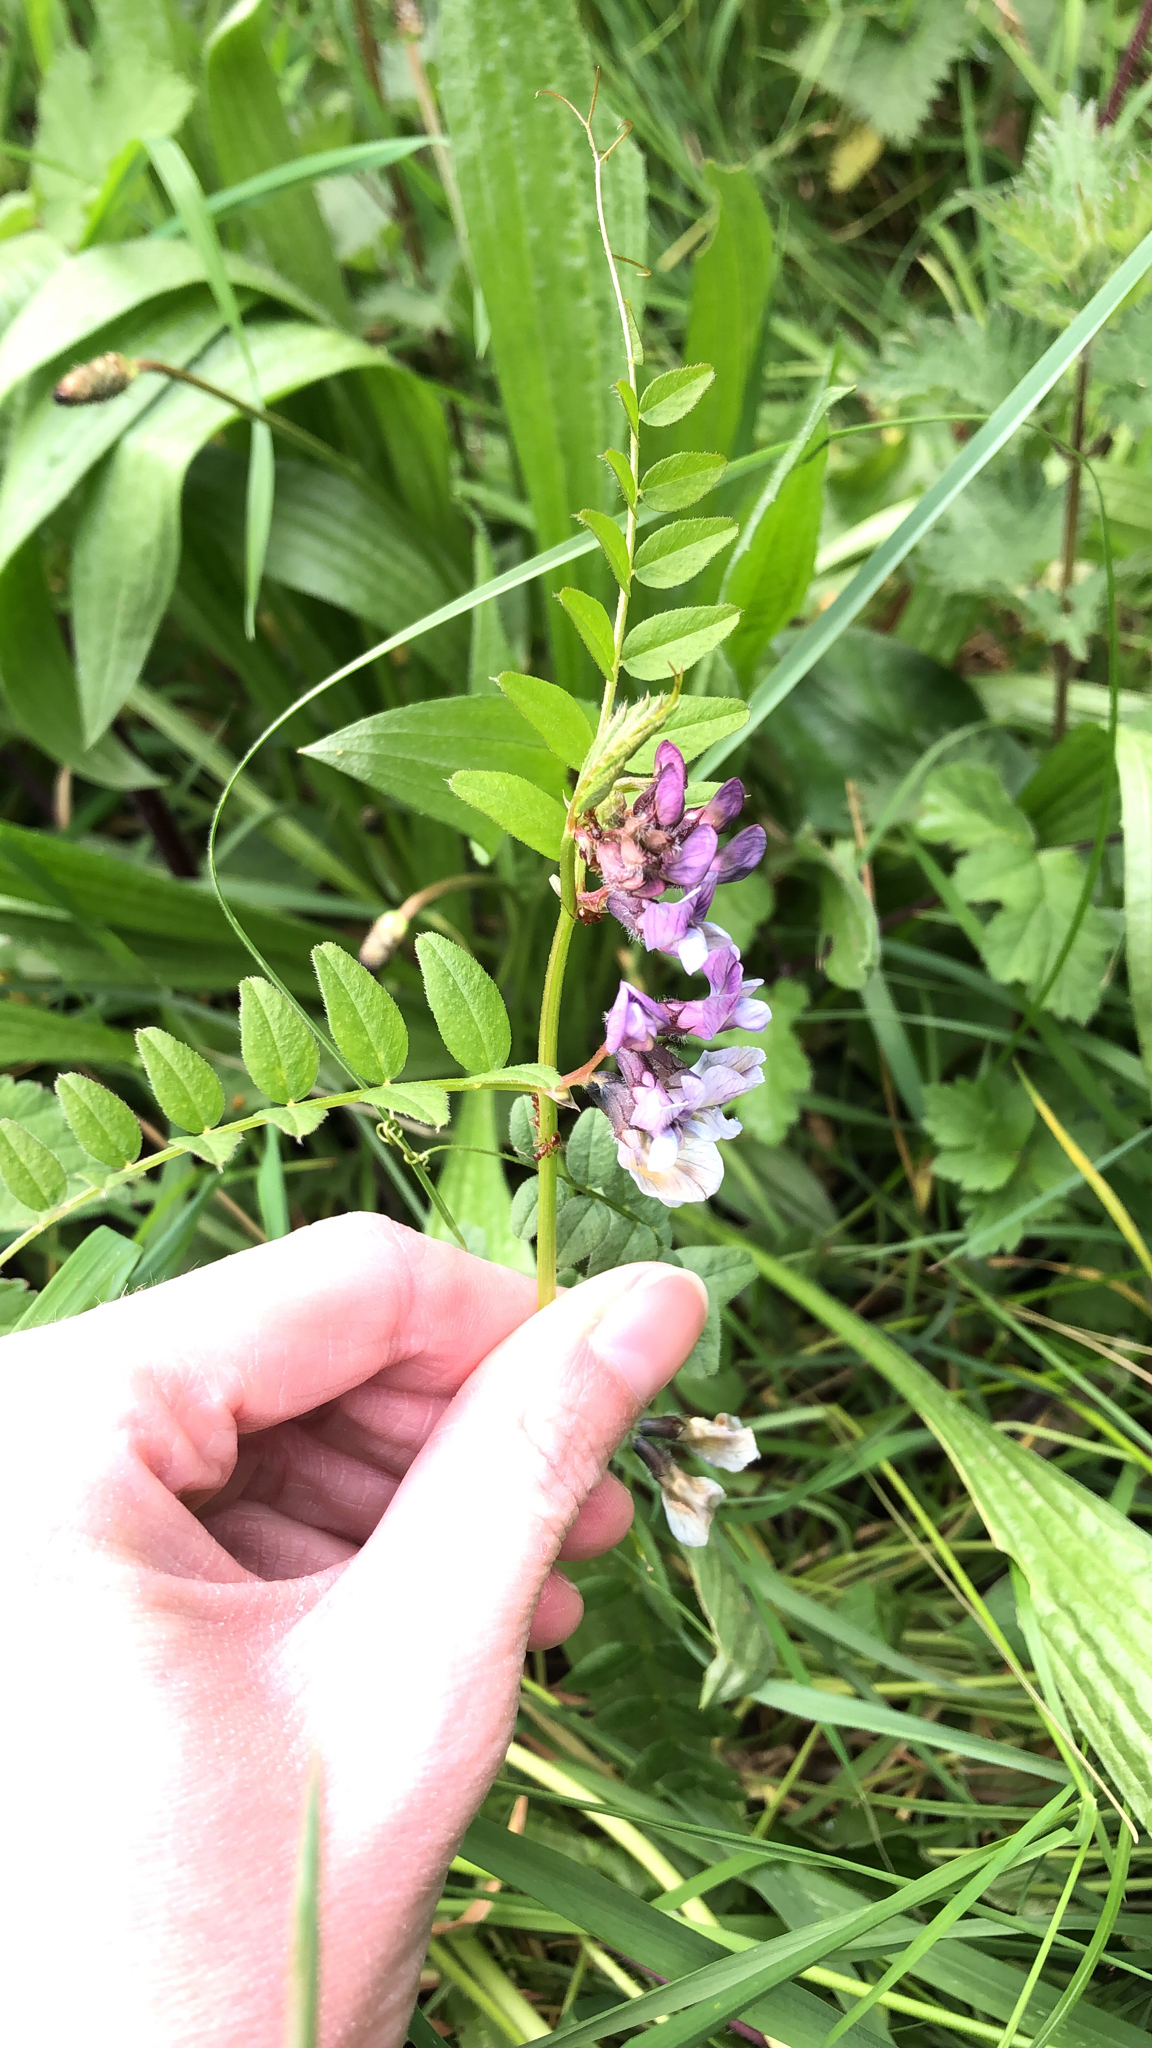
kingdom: Plantae
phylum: Tracheophyta
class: Magnoliopsida
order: Fabales
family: Fabaceae
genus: Vicia
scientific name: Vicia sepium
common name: Bush vetch
